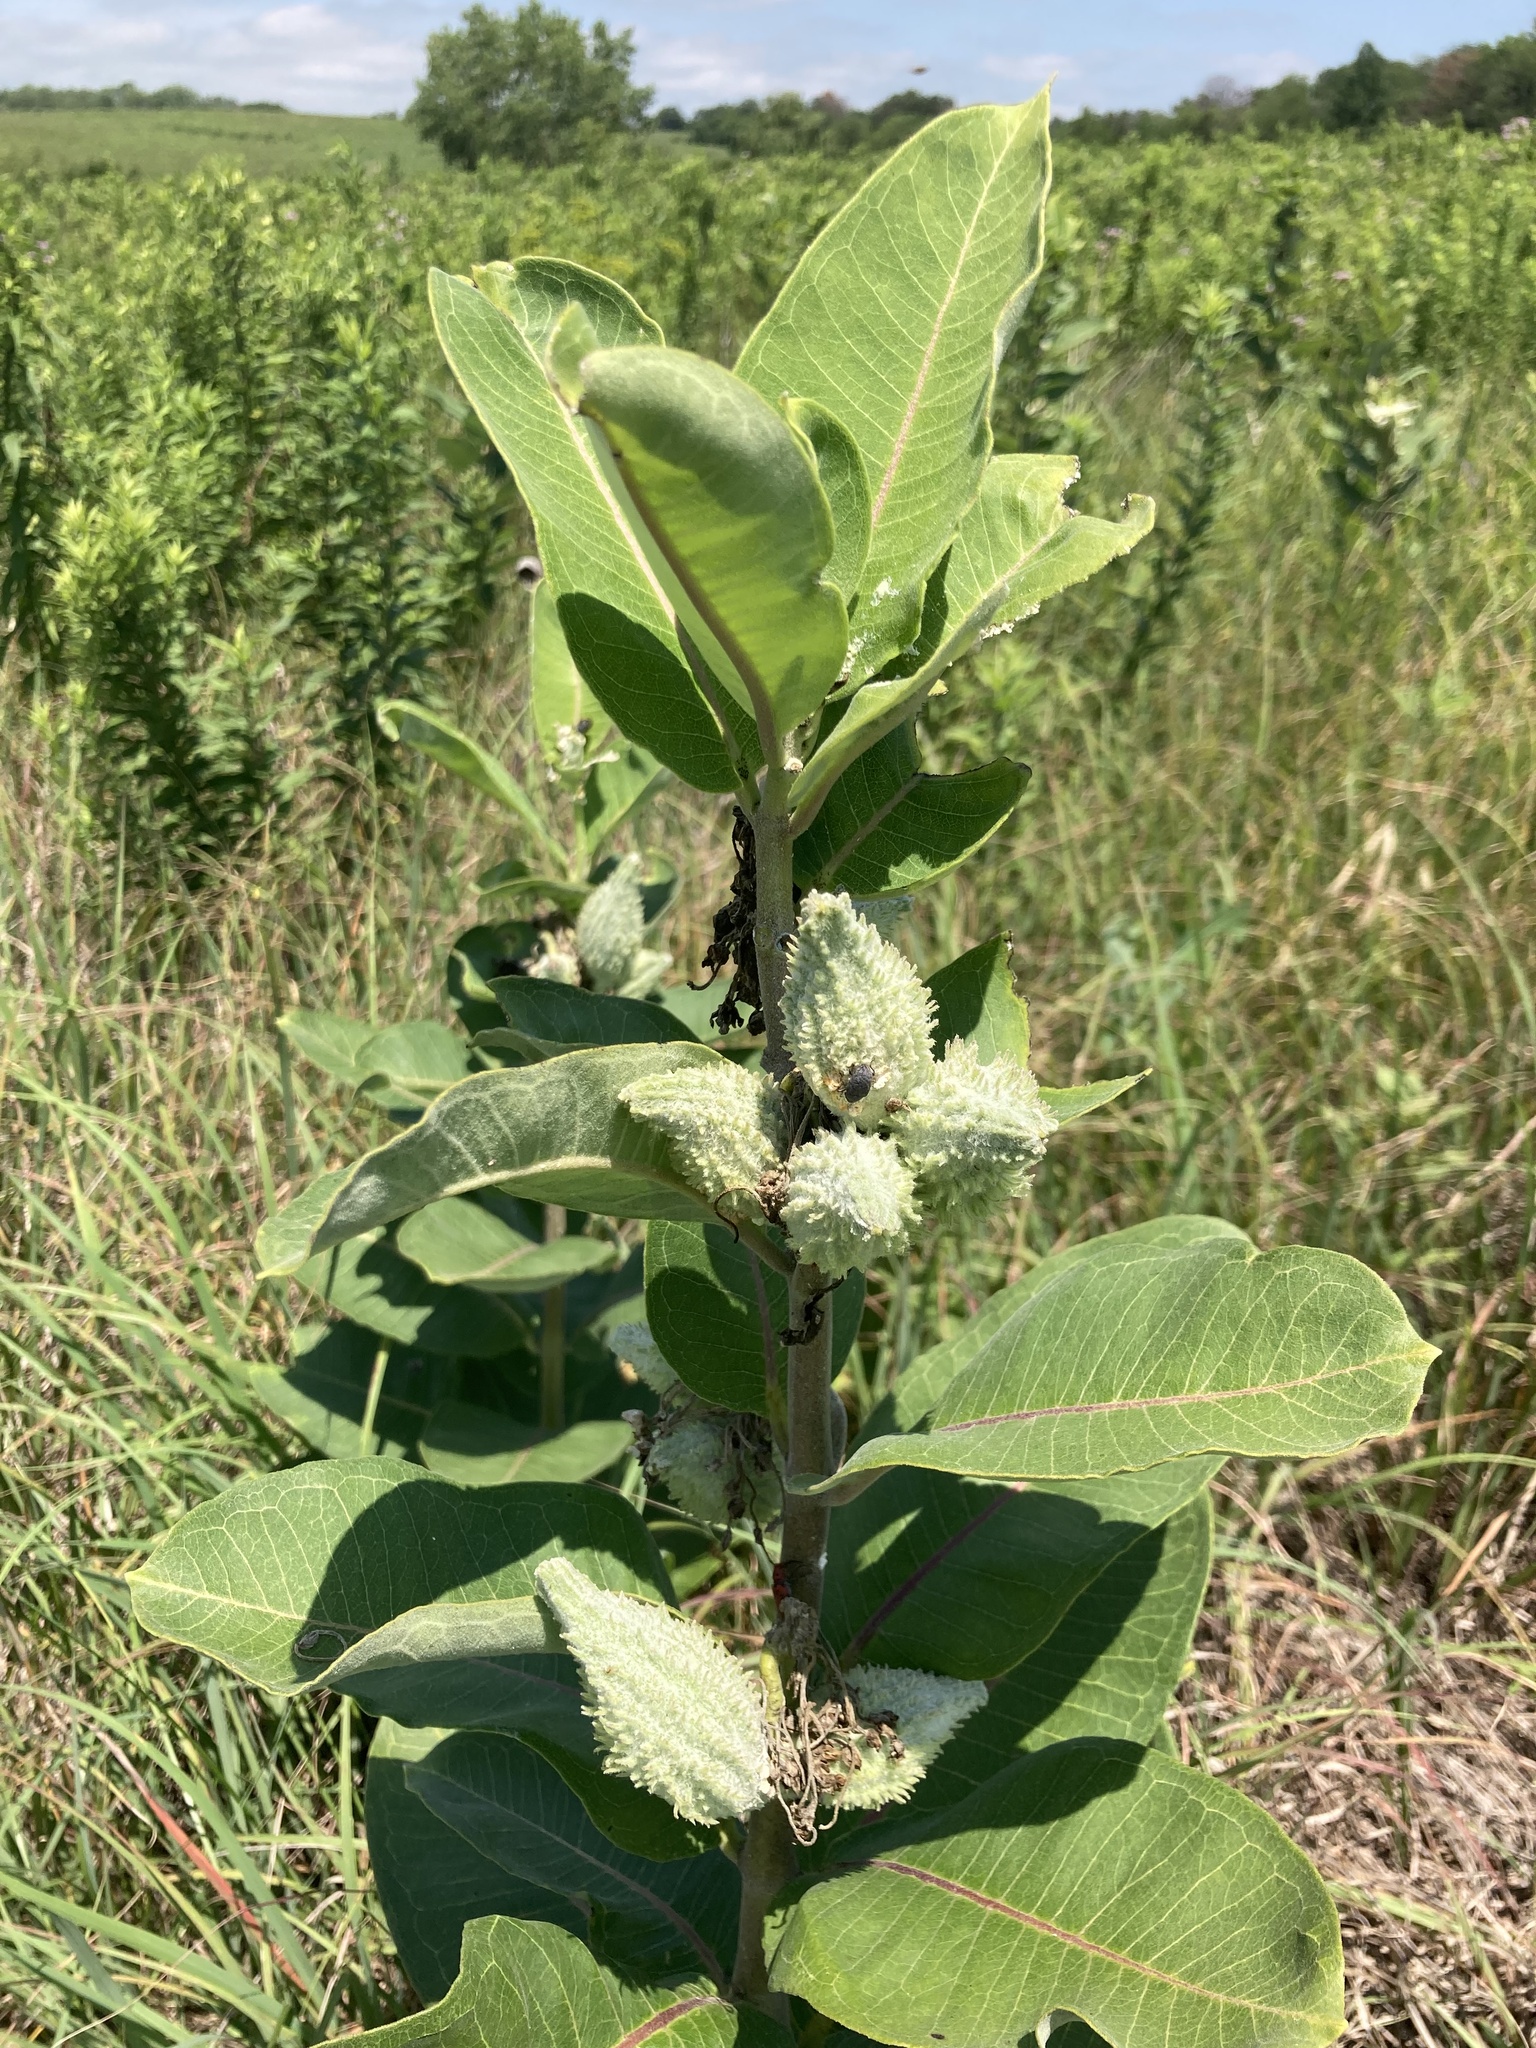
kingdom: Plantae
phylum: Tracheophyta
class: Magnoliopsida
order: Gentianales
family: Apocynaceae
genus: Asclepias
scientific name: Asclepias syriaca
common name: Common milkweed
